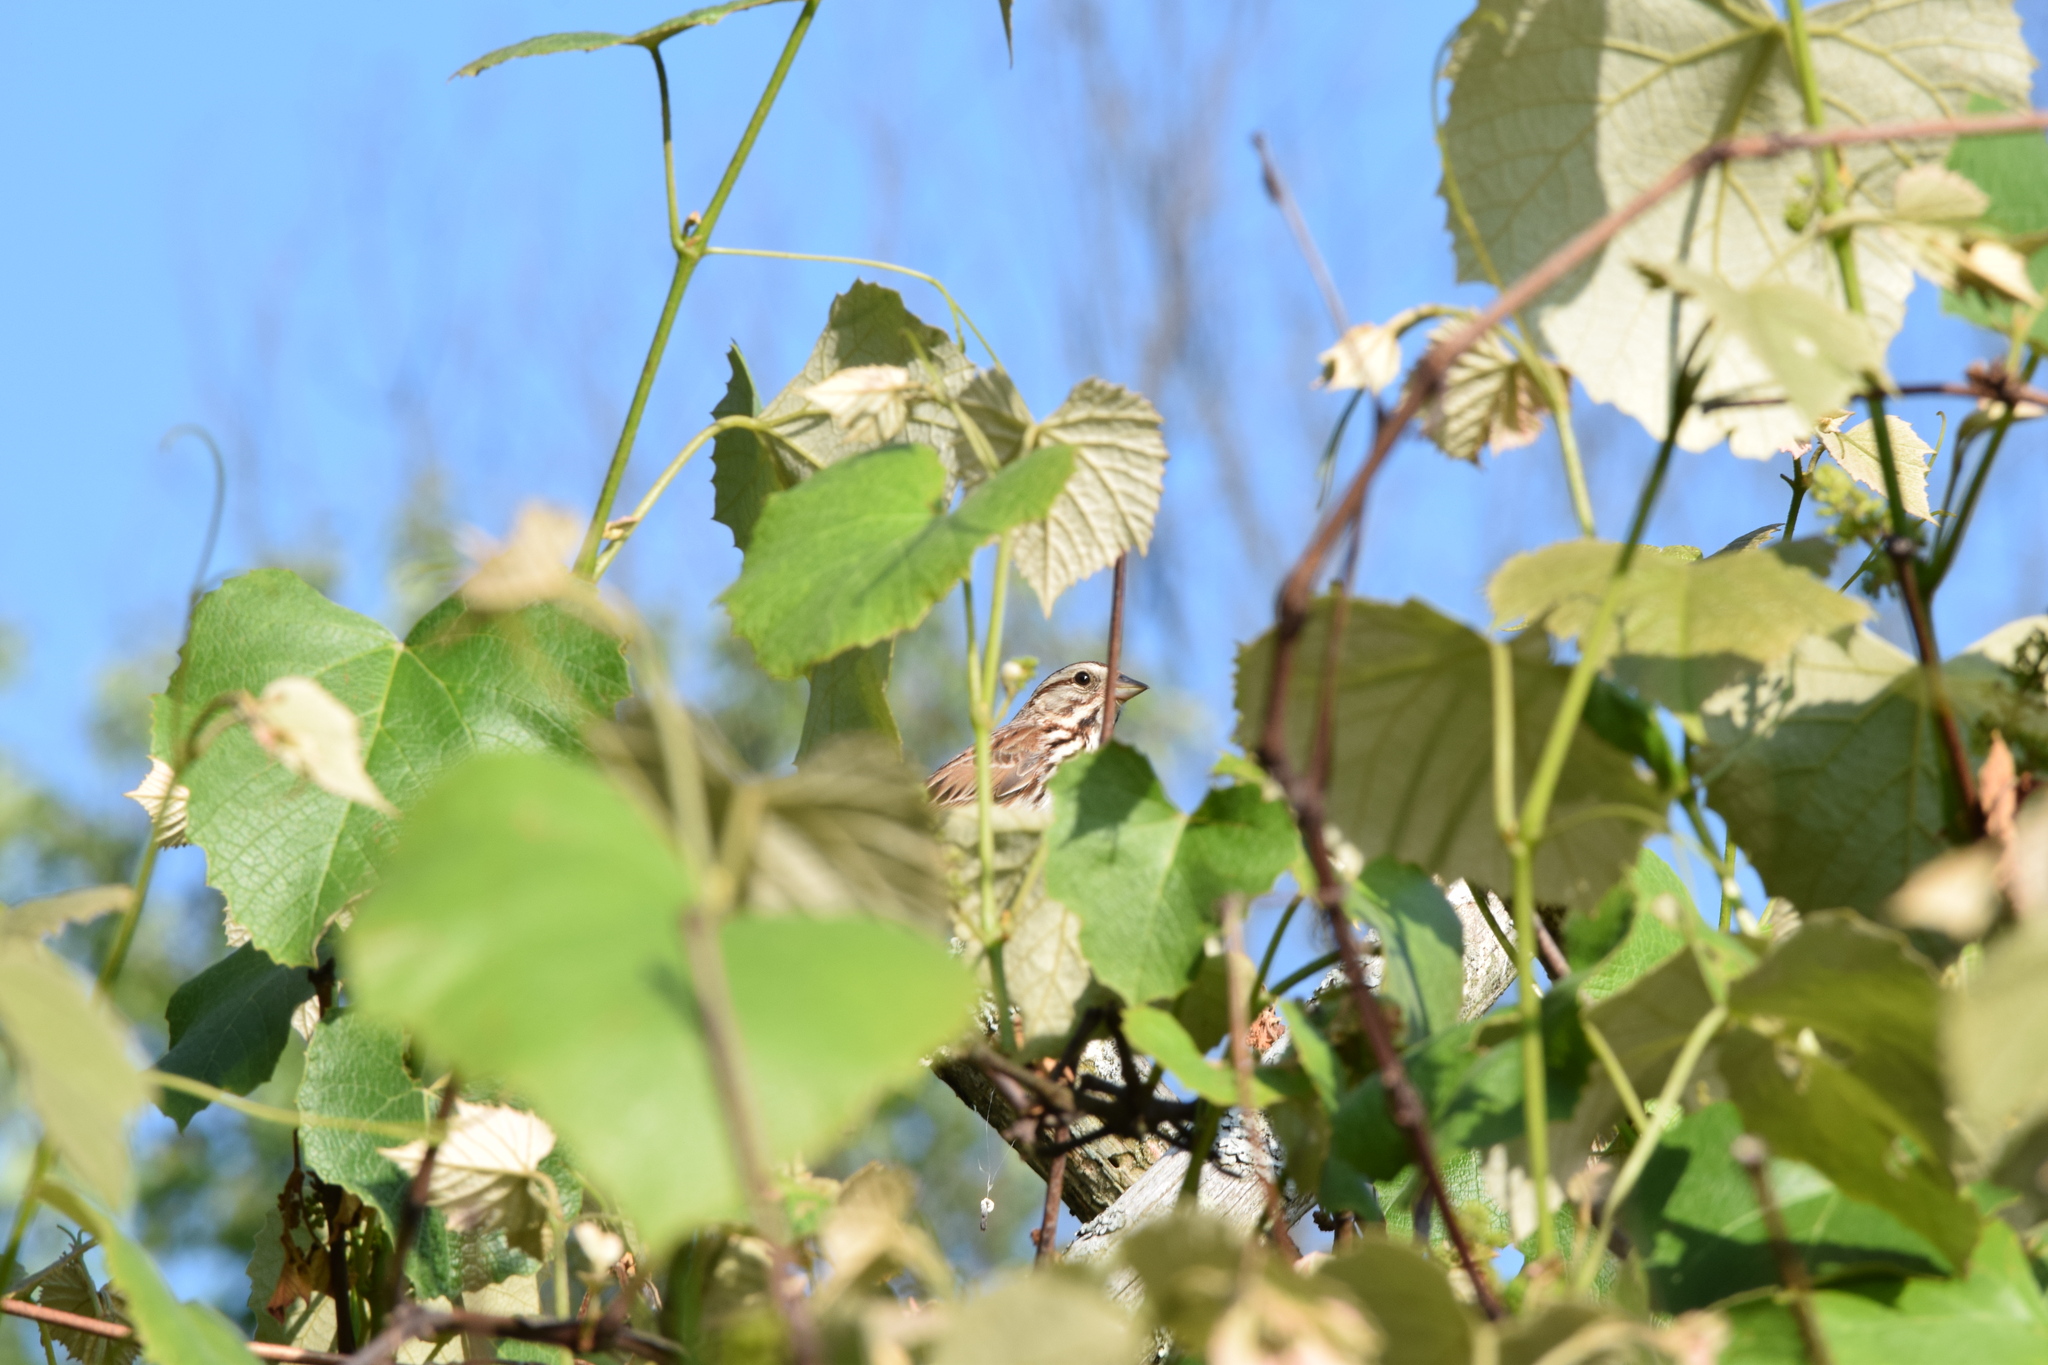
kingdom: Animalia
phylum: Chordata
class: Aves
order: Passeriformes
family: Passerellidae
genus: Melospiza
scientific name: Melospiza melodia
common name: Song sparrow
